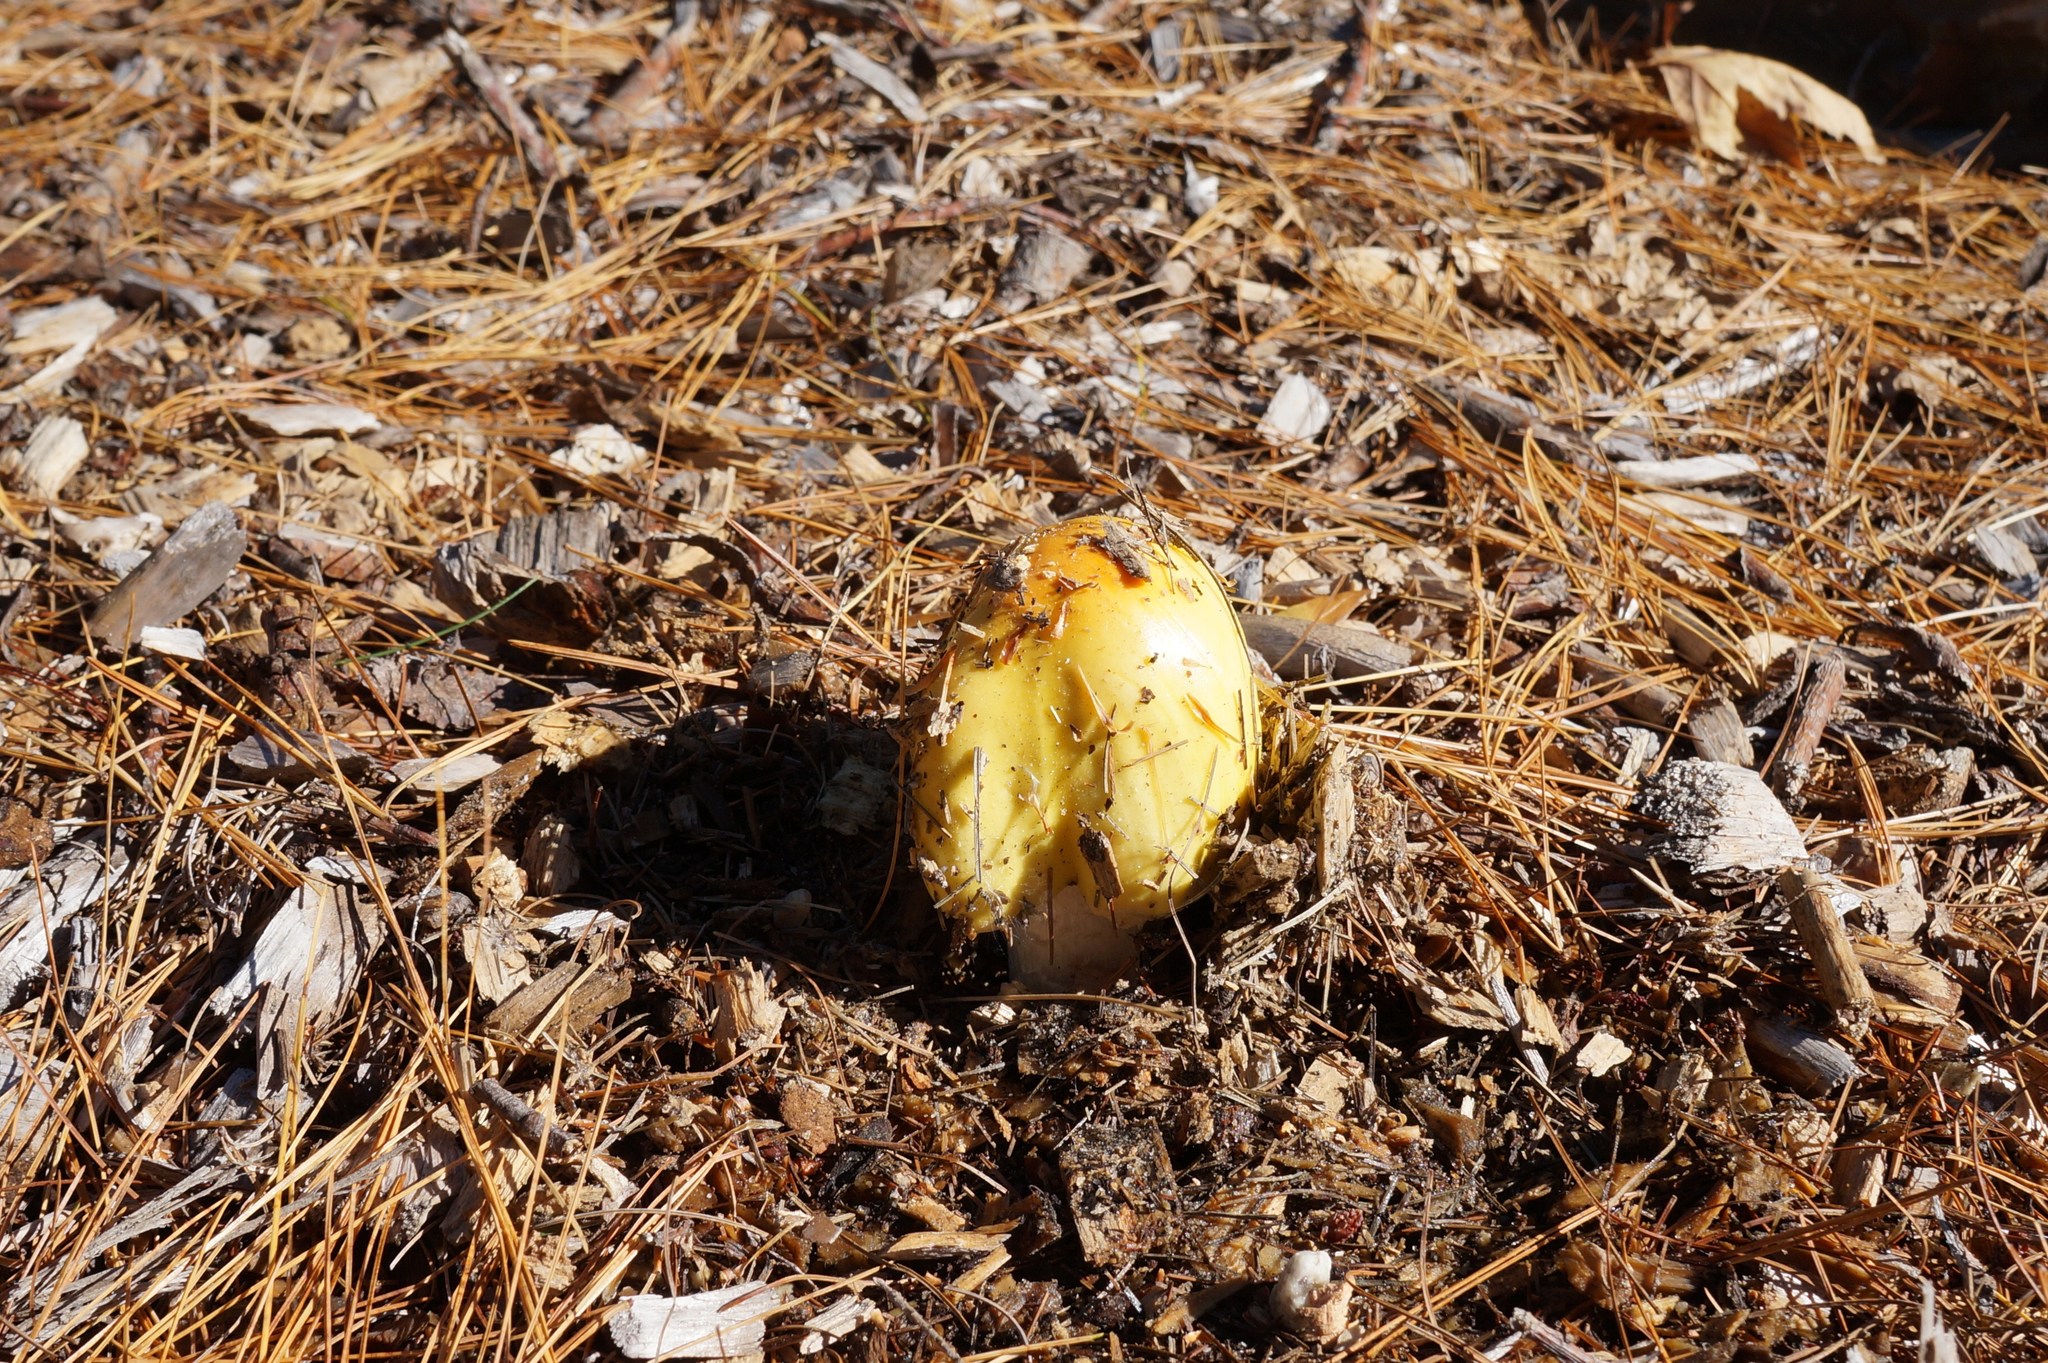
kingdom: Fungi
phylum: Basidiomycota
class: Agaricomycetes
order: Agaricales
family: Amanitaceae
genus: Amanita
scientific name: Amanita muscaria
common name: Fly agaric
